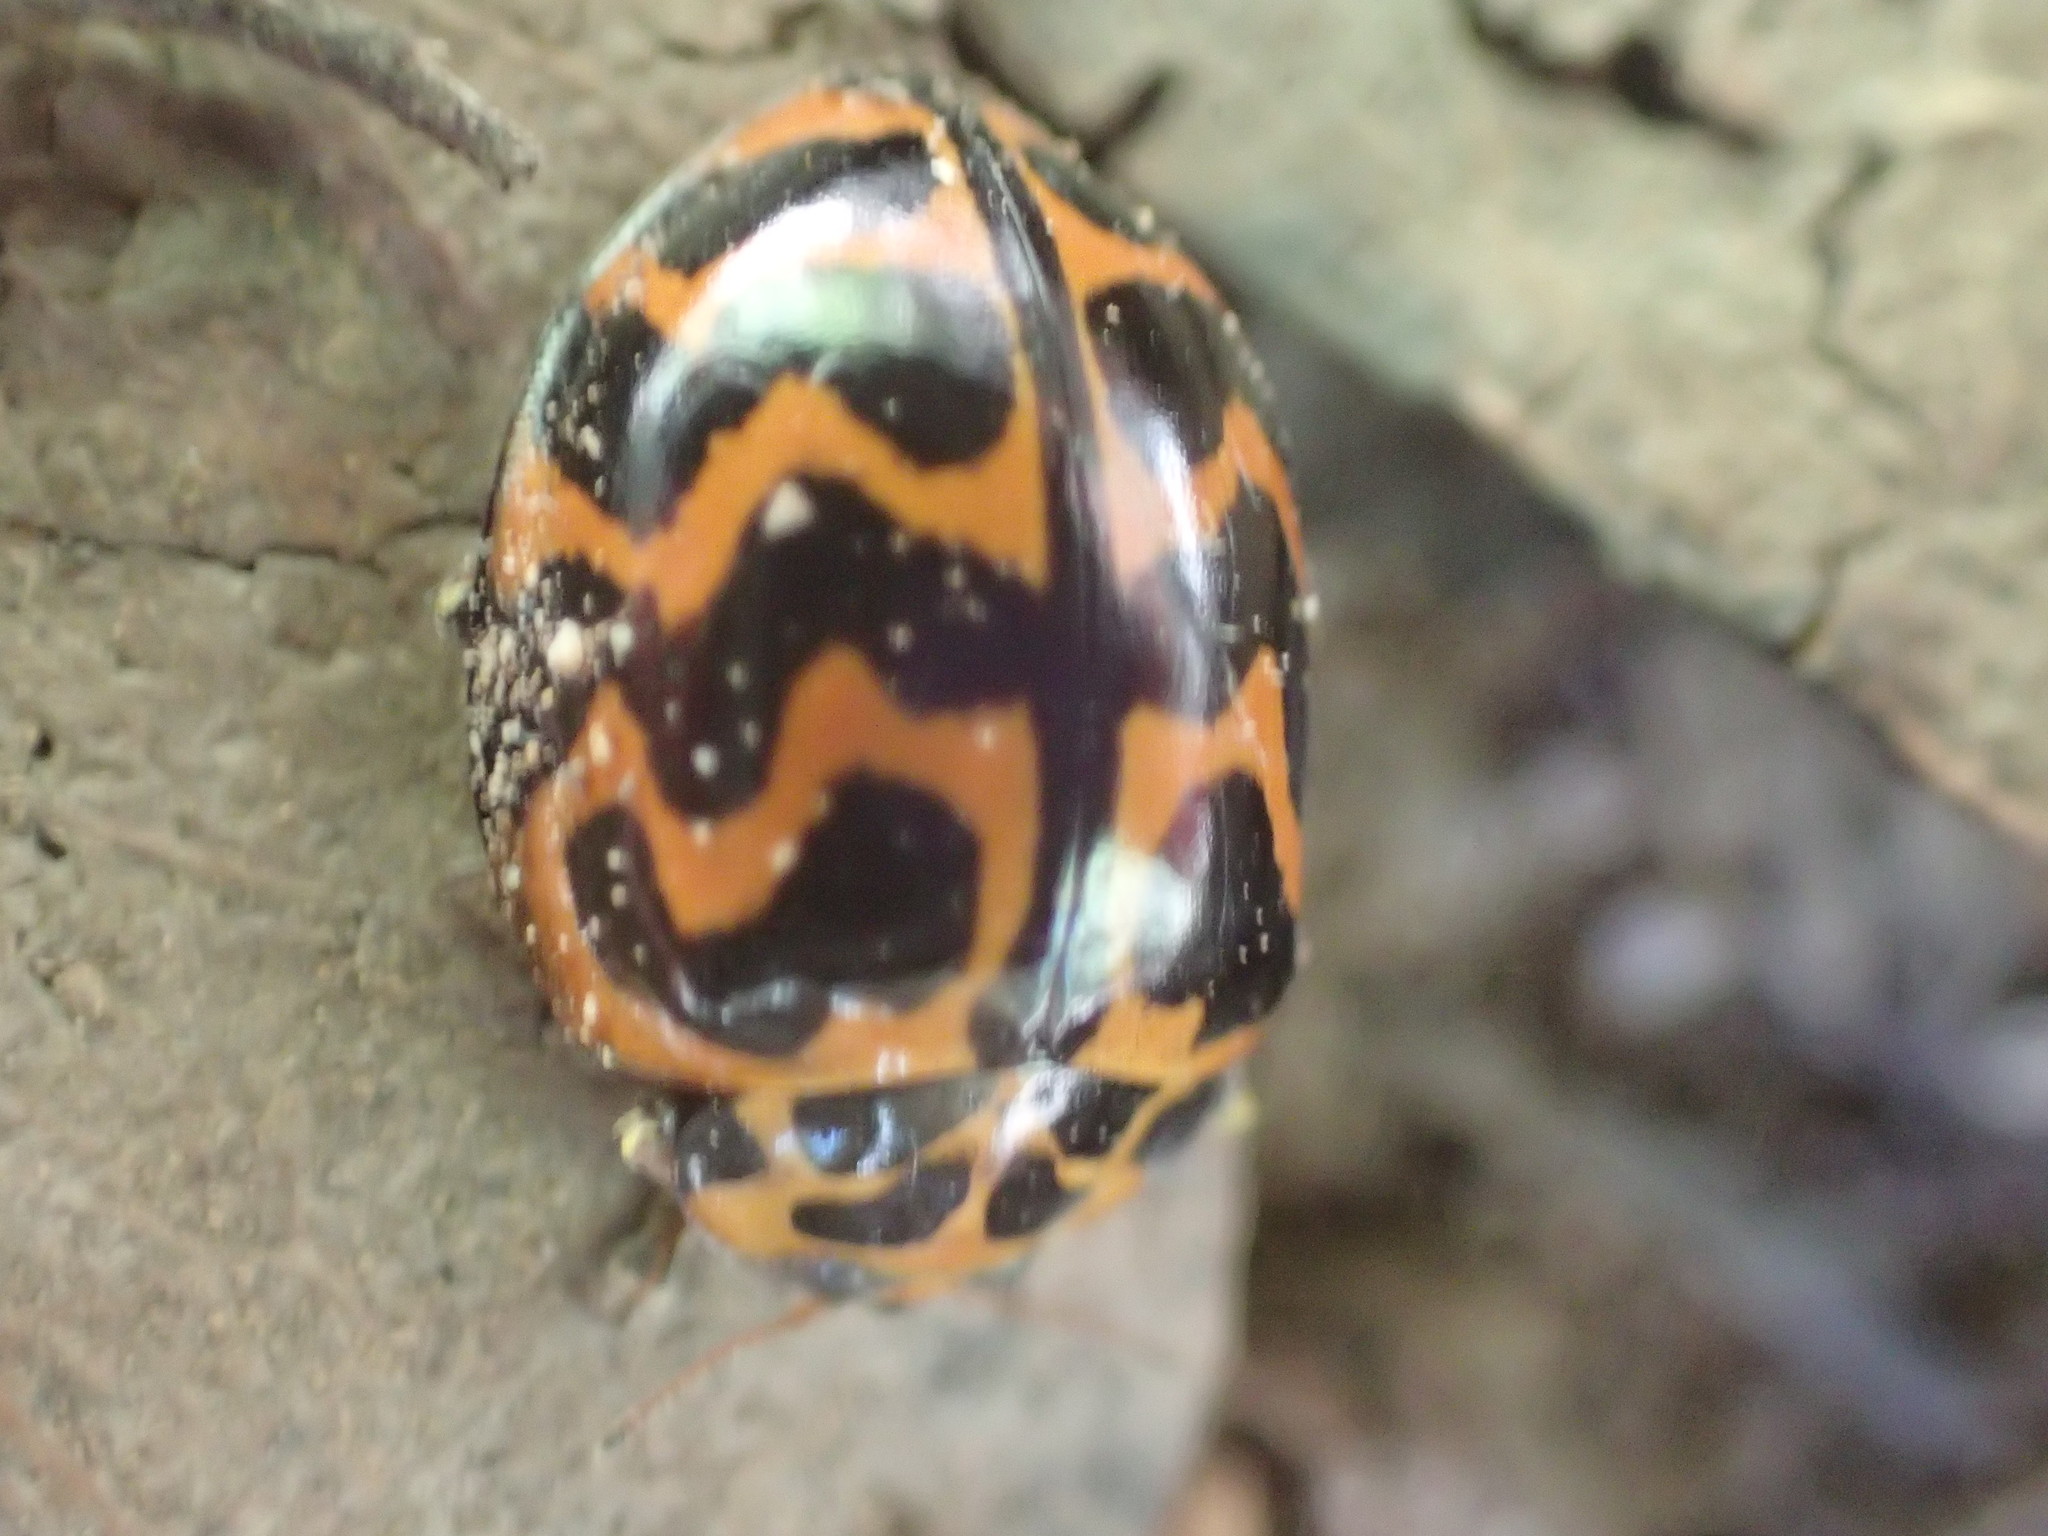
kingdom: Animalia
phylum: Arthropoda
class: Insecta
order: Coleoptera
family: Coccinellidae
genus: Cleobora
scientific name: Cleobora
